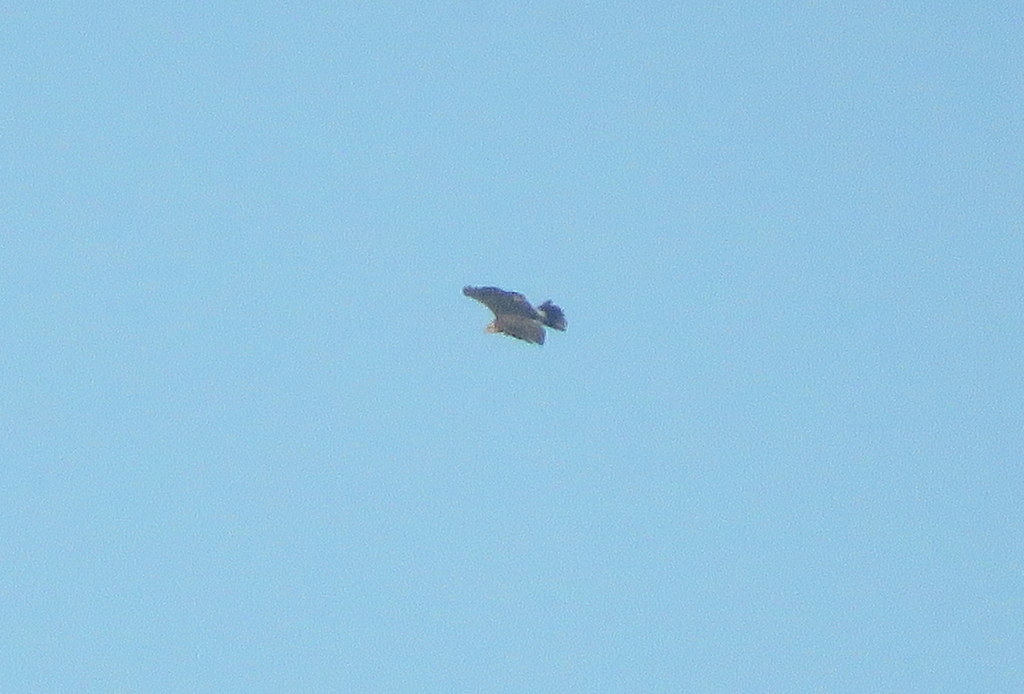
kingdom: Animalia
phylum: Chordata
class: Aves
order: Accipitriformes
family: Accipitridae
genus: Rostrhamus
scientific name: Rostrhamus sociabilis
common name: Snail kite
